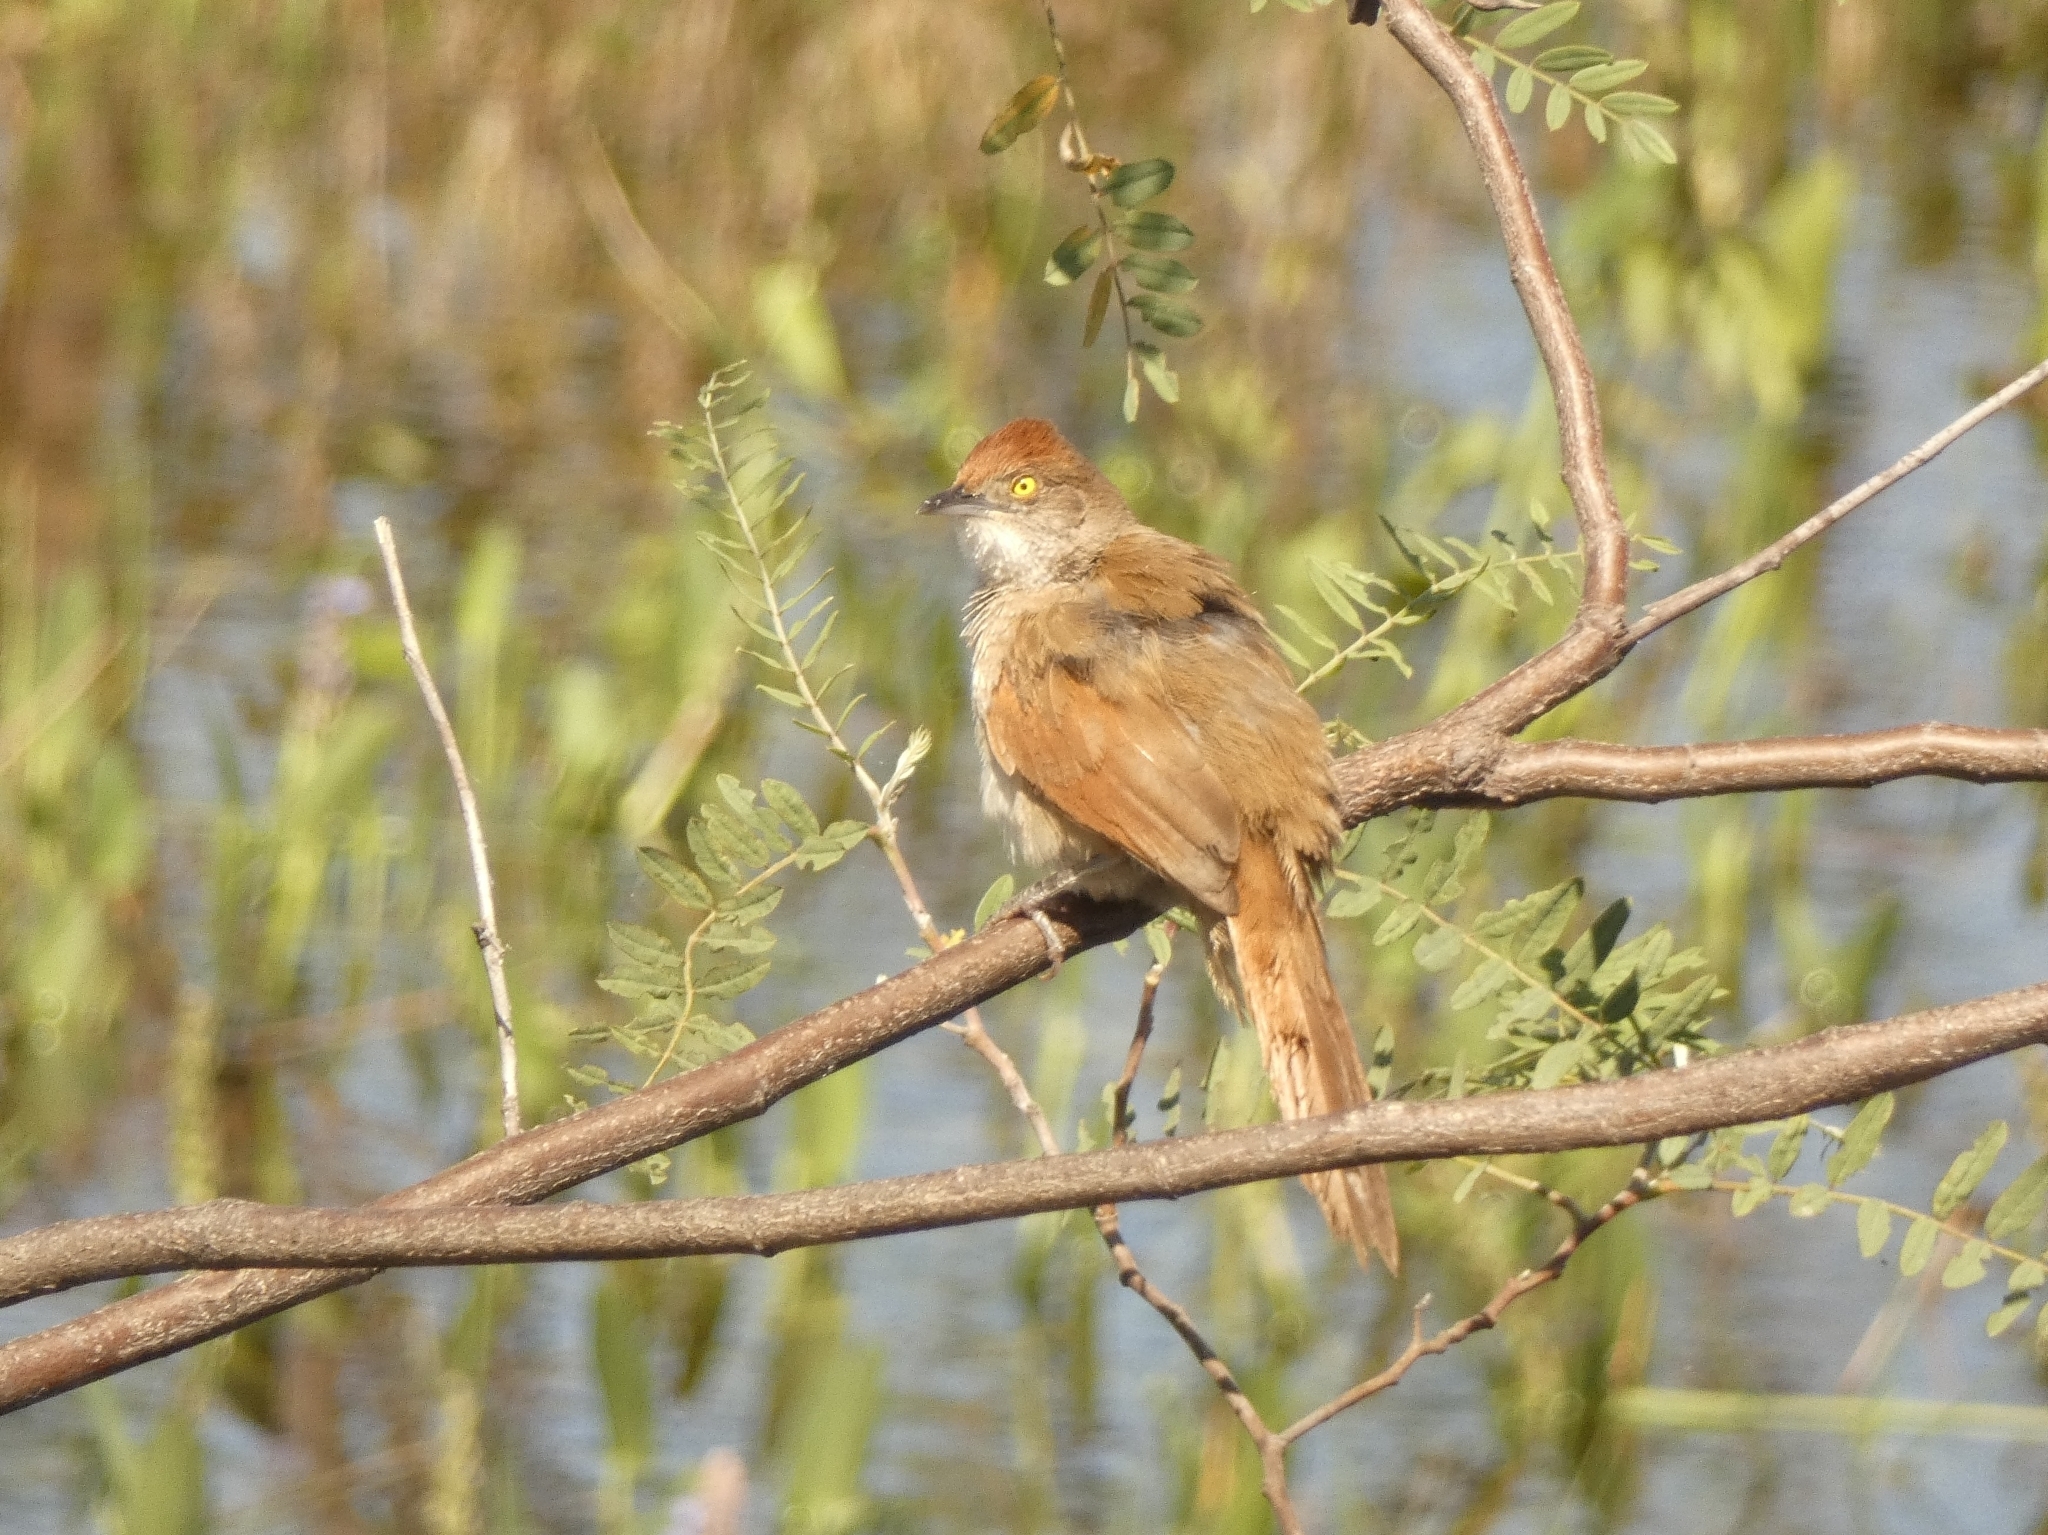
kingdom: Animalia
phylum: Chordata
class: Aves
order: Passeriformes
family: Furnariidae
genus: Phacellodomus
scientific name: Phacellodomus ruber
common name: Greater thornbird
